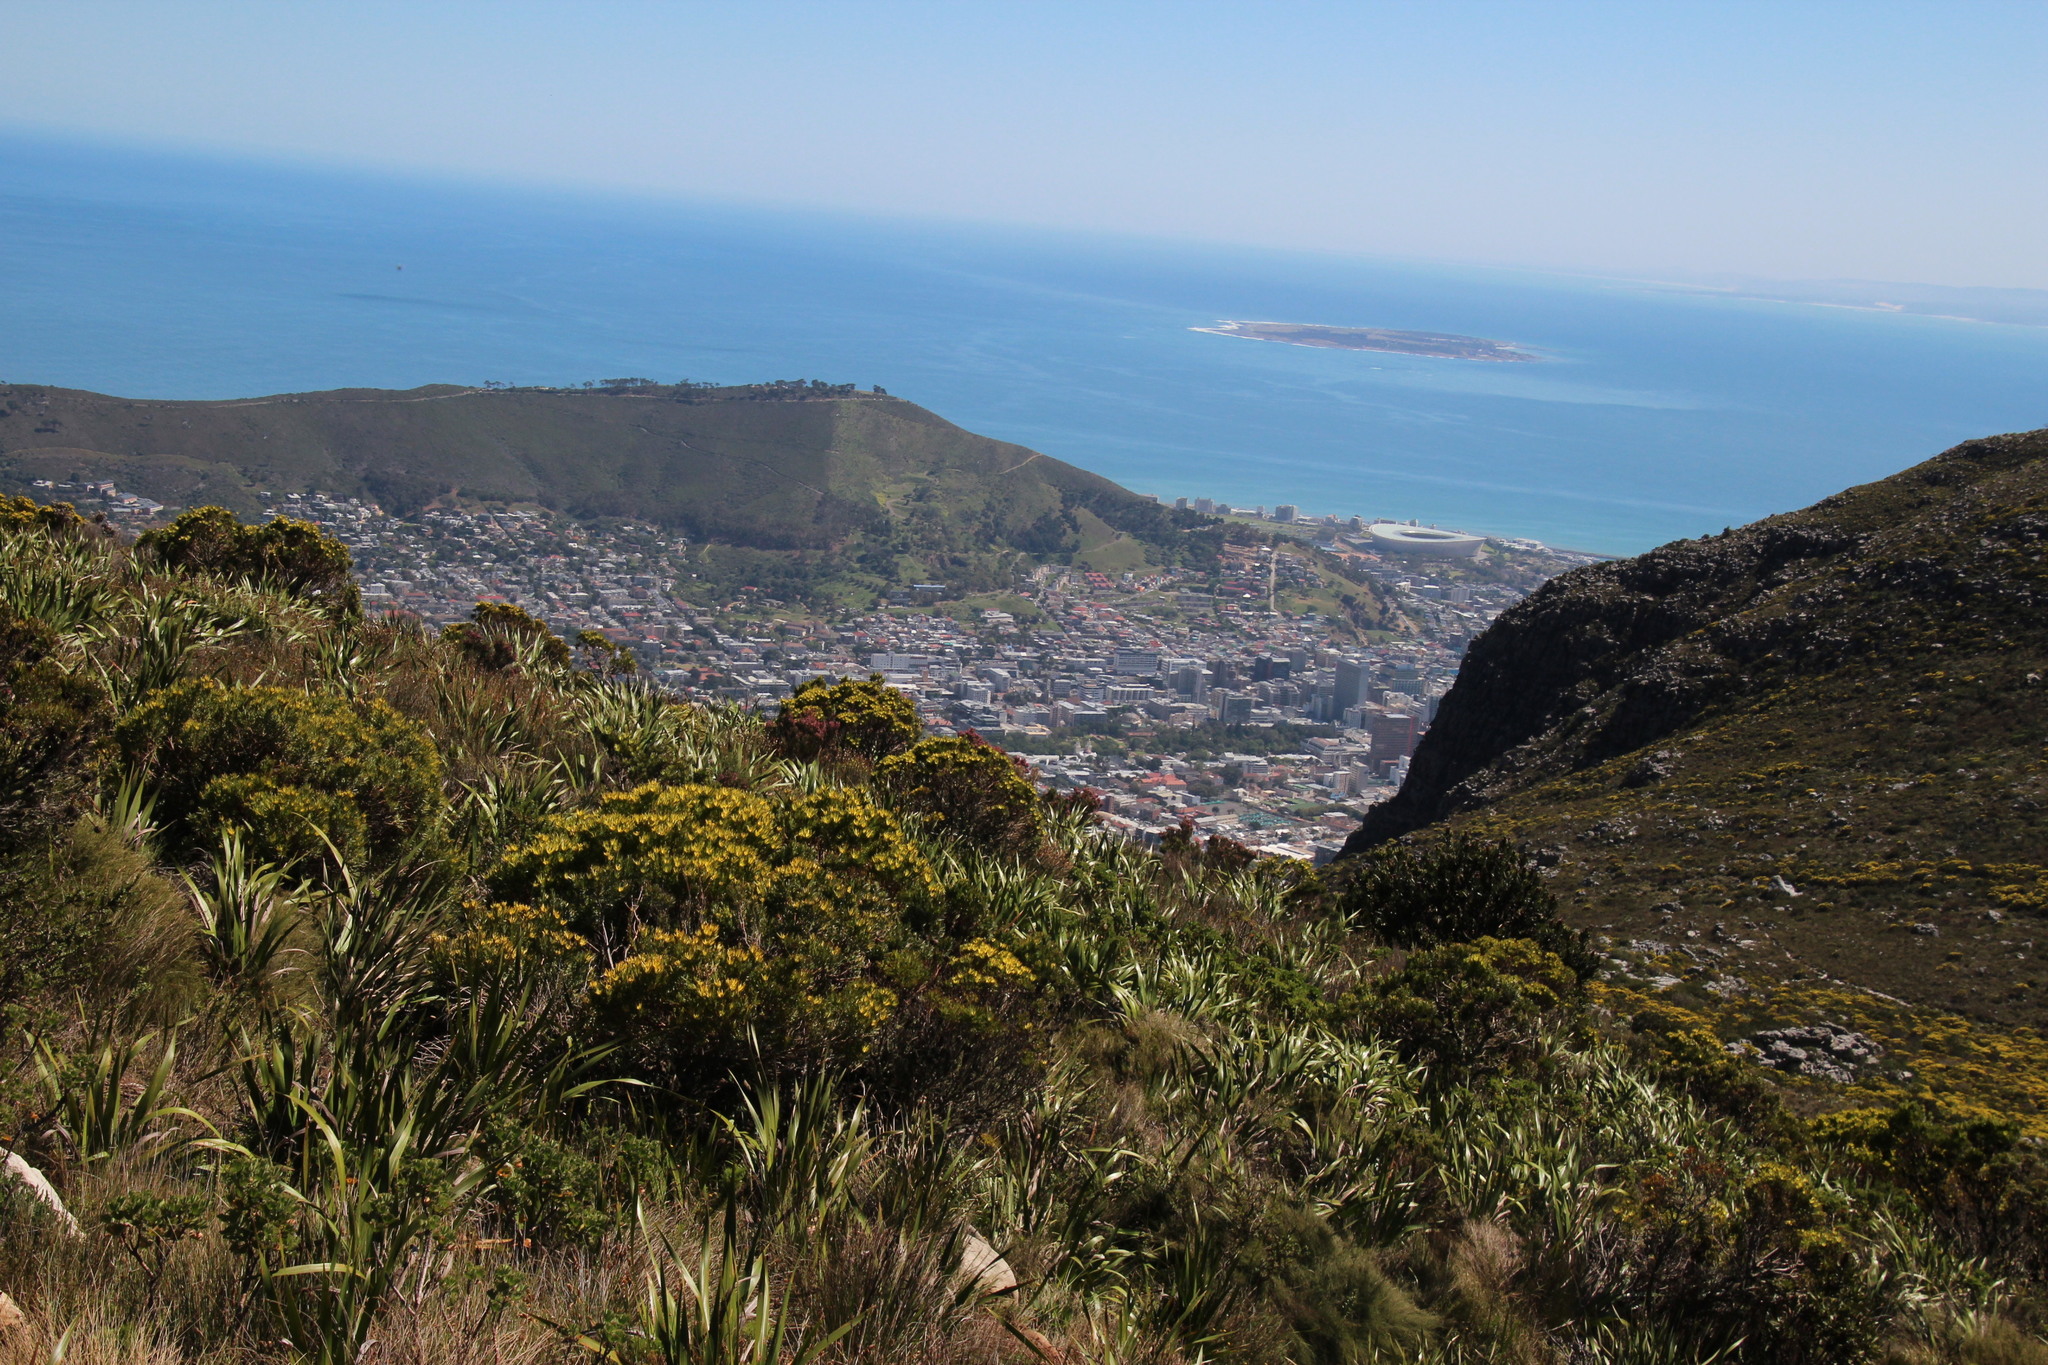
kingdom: Plantae
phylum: Tracheophyta
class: Magnoliopsida
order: Proteales
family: Proteaceae
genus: Leucadendron
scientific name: Leucadendron xanthoconus
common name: Sickle-leaf conebush
